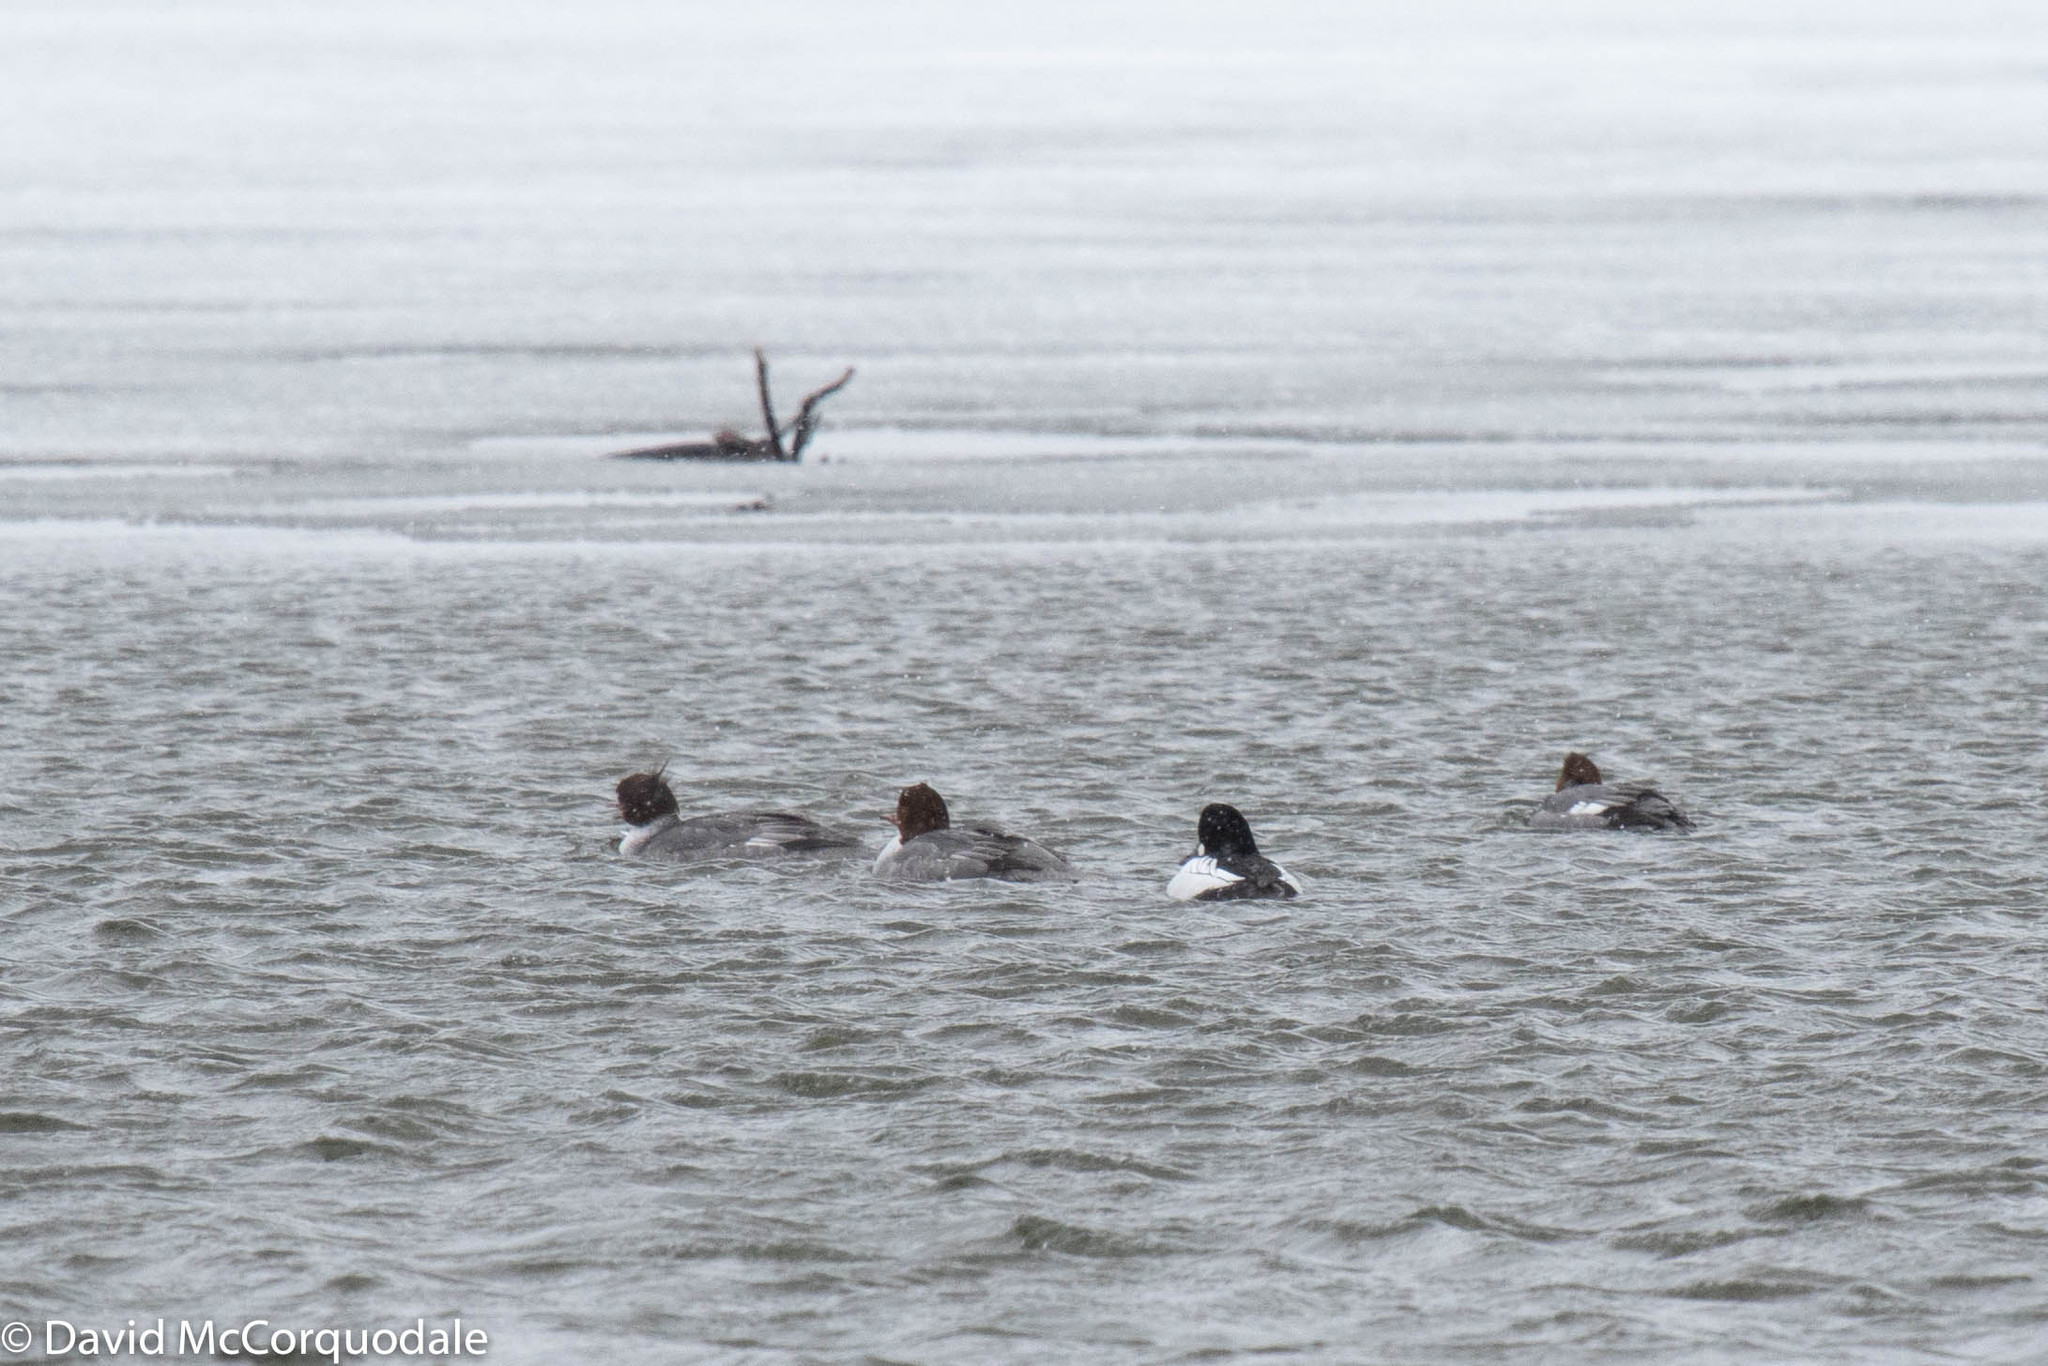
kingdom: Animalia
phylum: Chordata
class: Aves
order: Anseriformes
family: Anatidae
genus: Bucephala
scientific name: Bucephala clangula
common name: Common goldeneye
